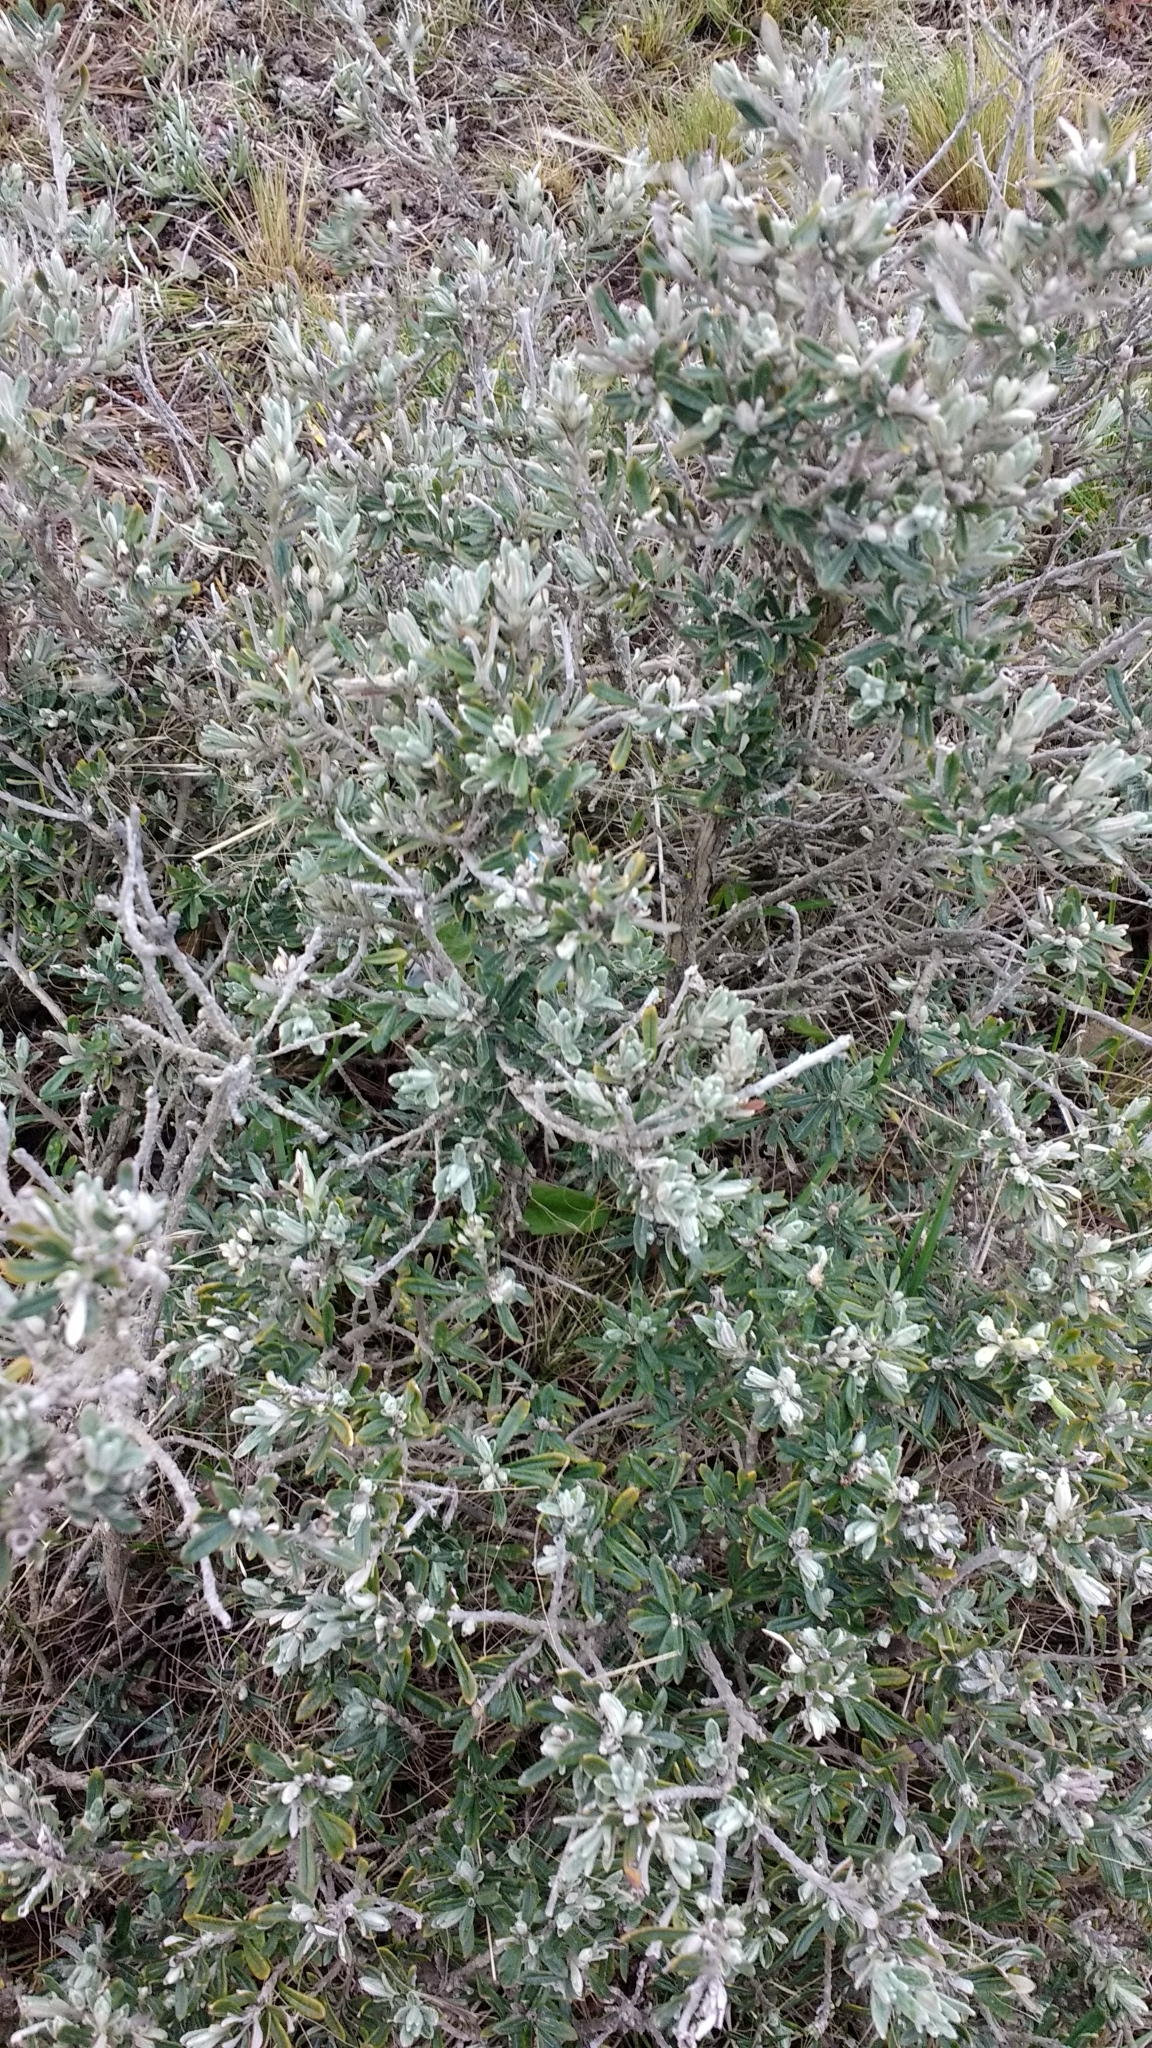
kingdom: Plantae
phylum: Tracheophyta
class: Magnoliopsida
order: Asterales
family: Asteraceae
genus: Chiliotrichum
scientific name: Chiliotrichum diffusum
